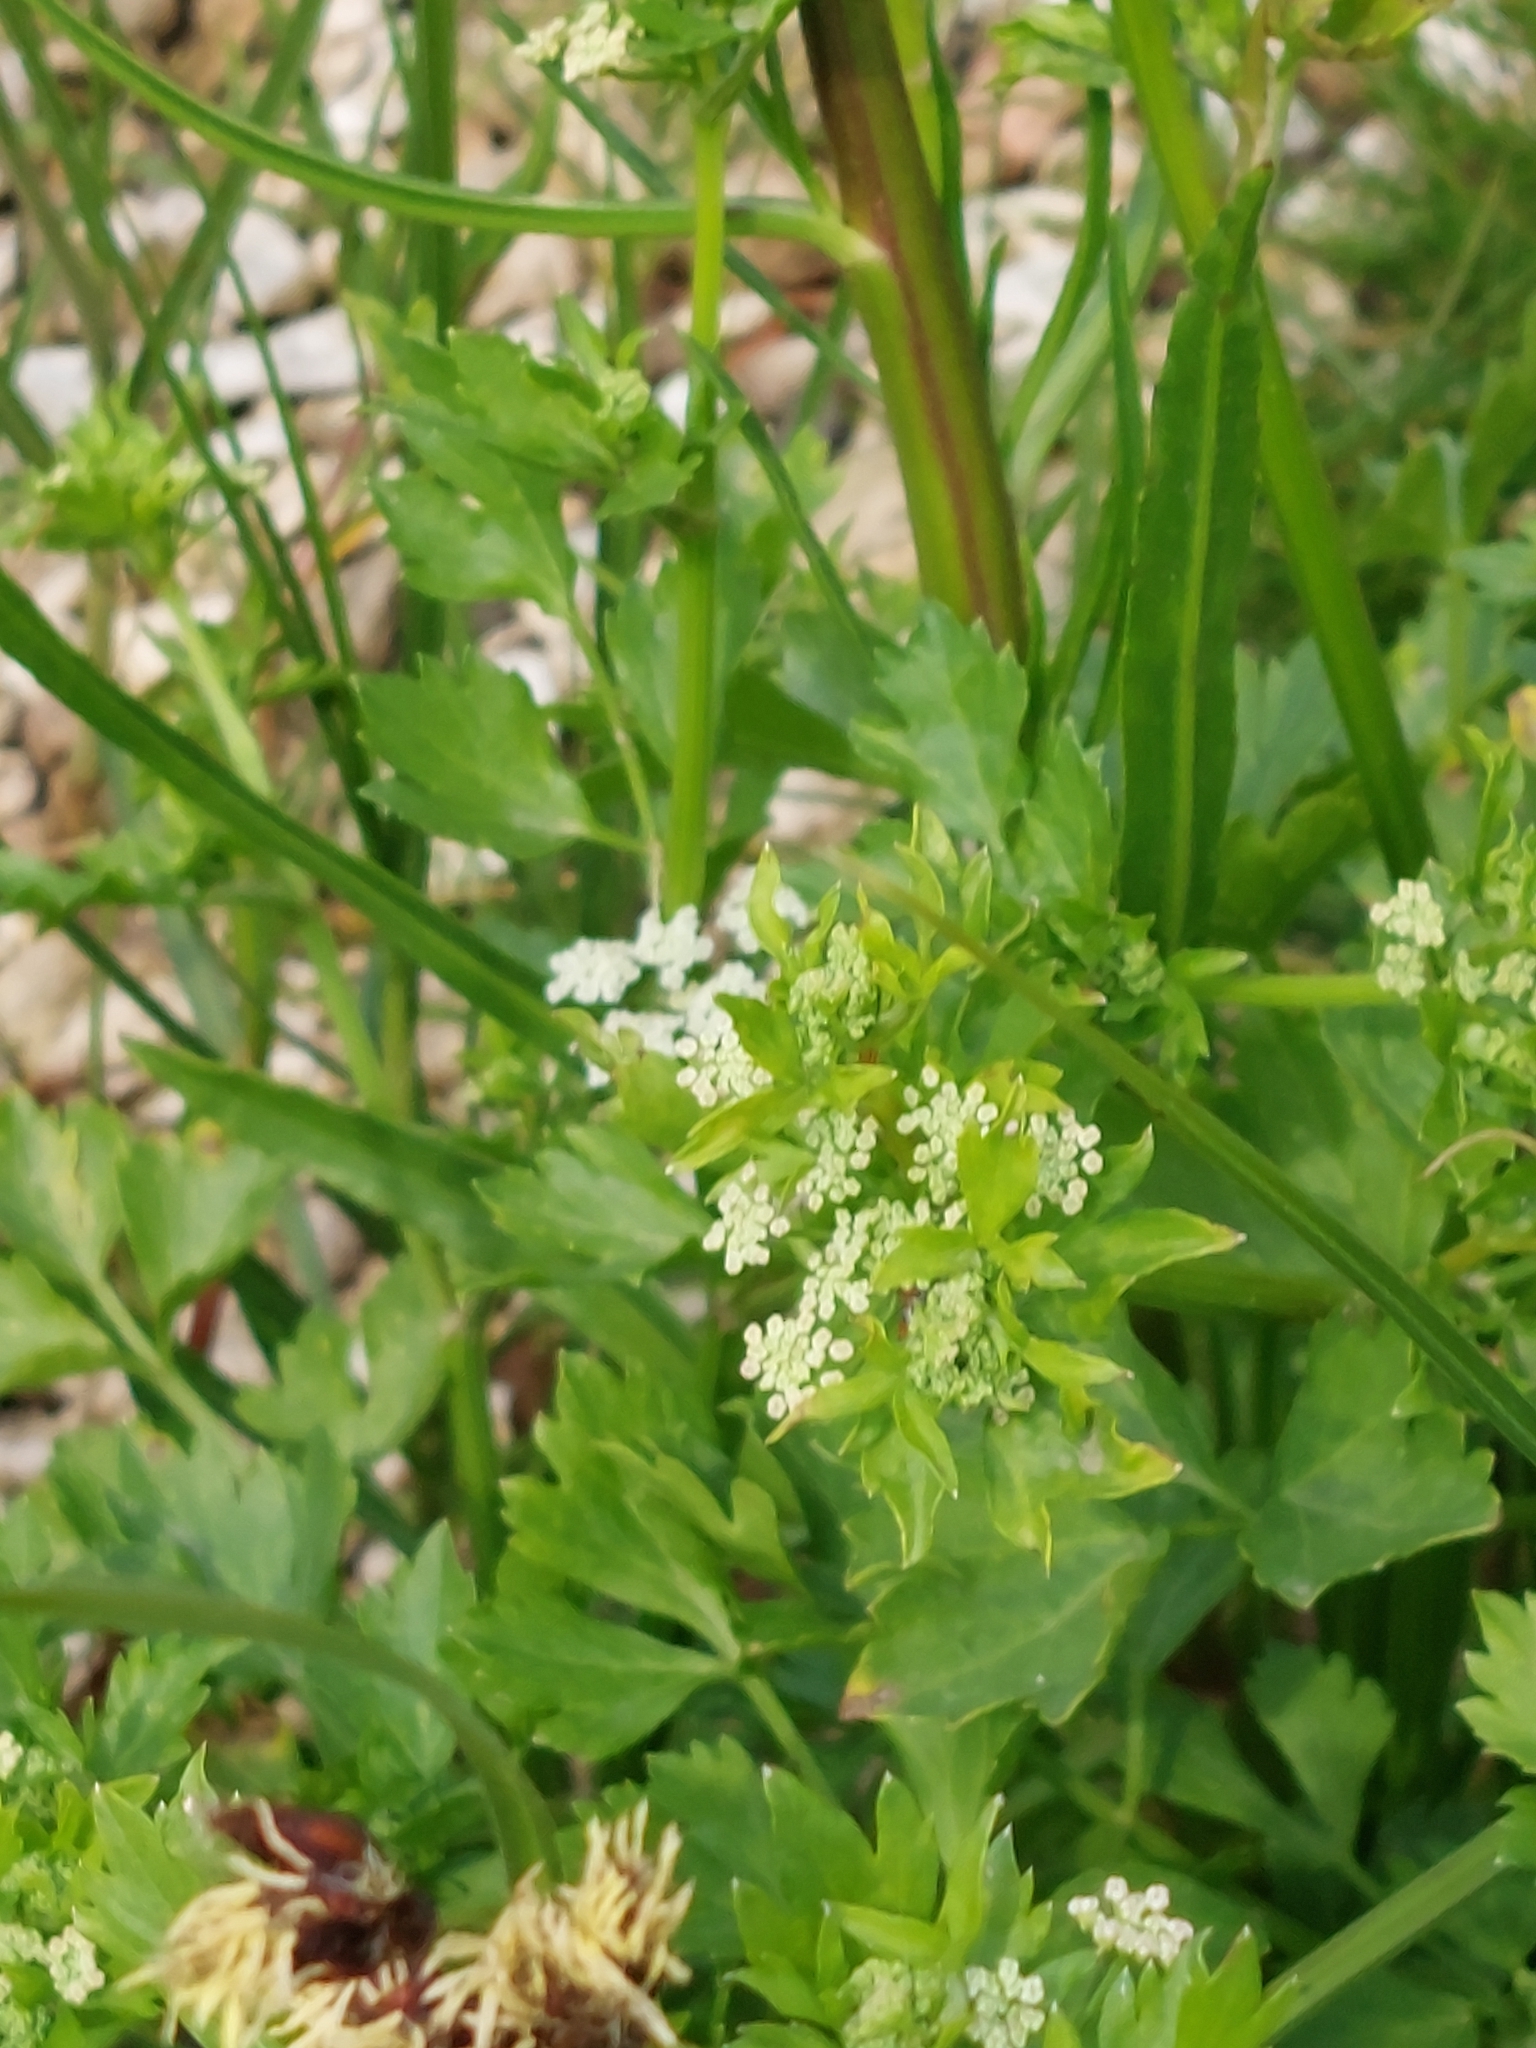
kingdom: Plantae
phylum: Tracheophyta
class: Magnoliopsida
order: Apiales
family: Apiaceae
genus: Apium
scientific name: Apium graveolens
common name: Wild celery
